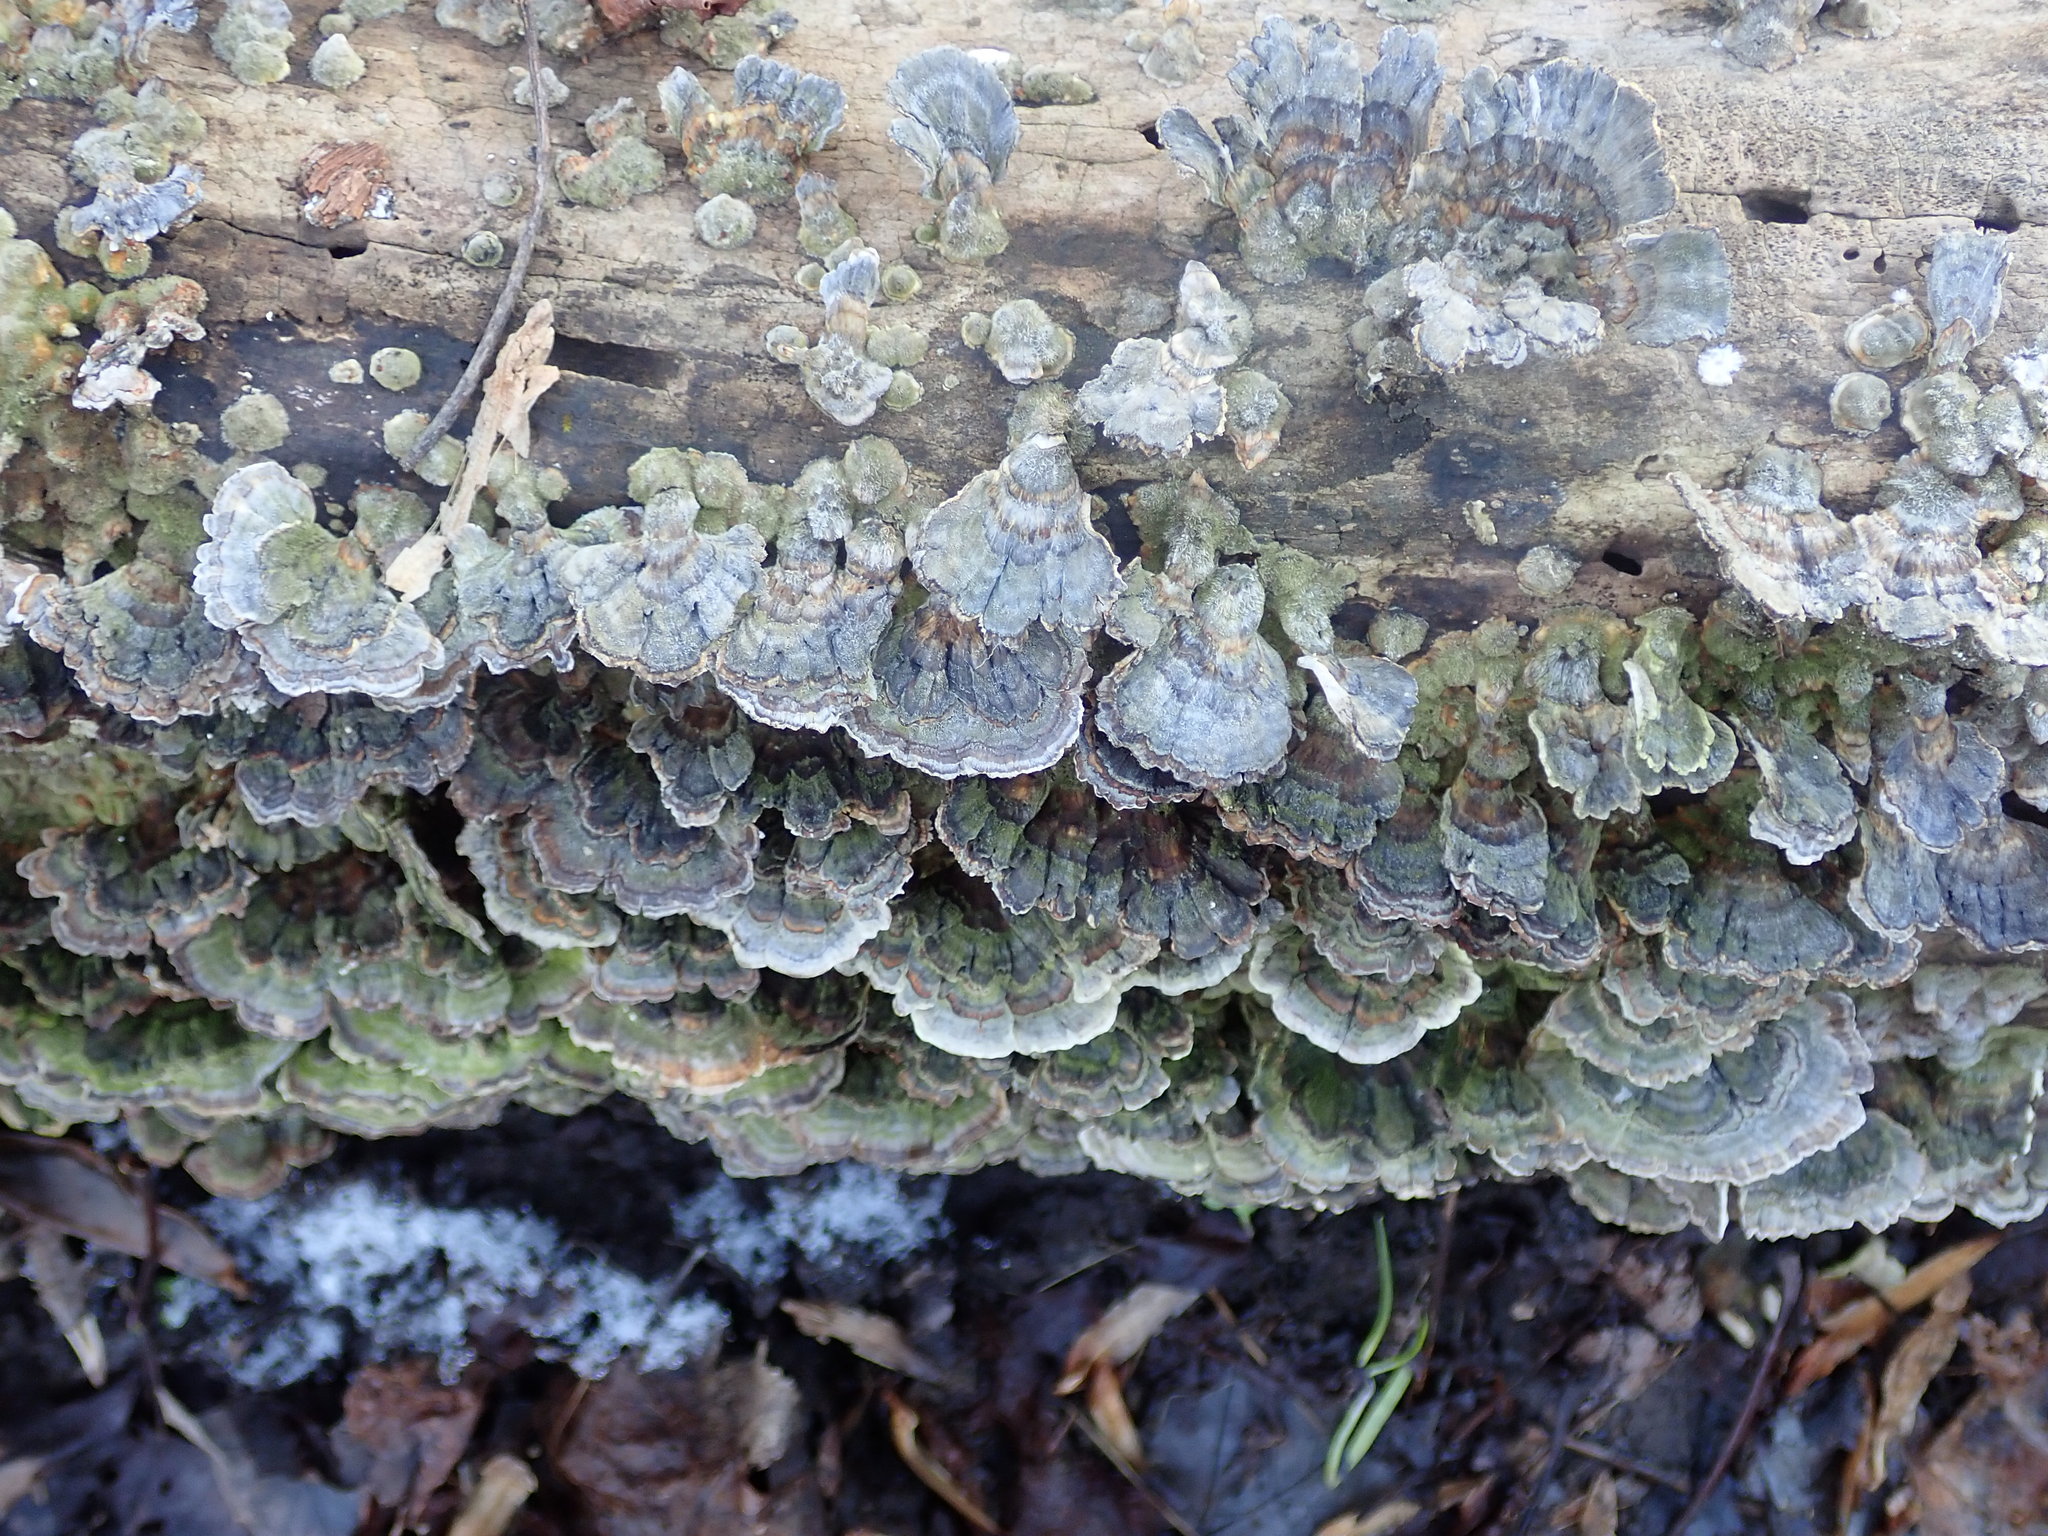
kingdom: Fungi
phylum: Basidiomycota
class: Agaricomycetes
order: Polyporales
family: Polyporaceae
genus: Trametes
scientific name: Trametes versicolor
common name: Turkeytail
